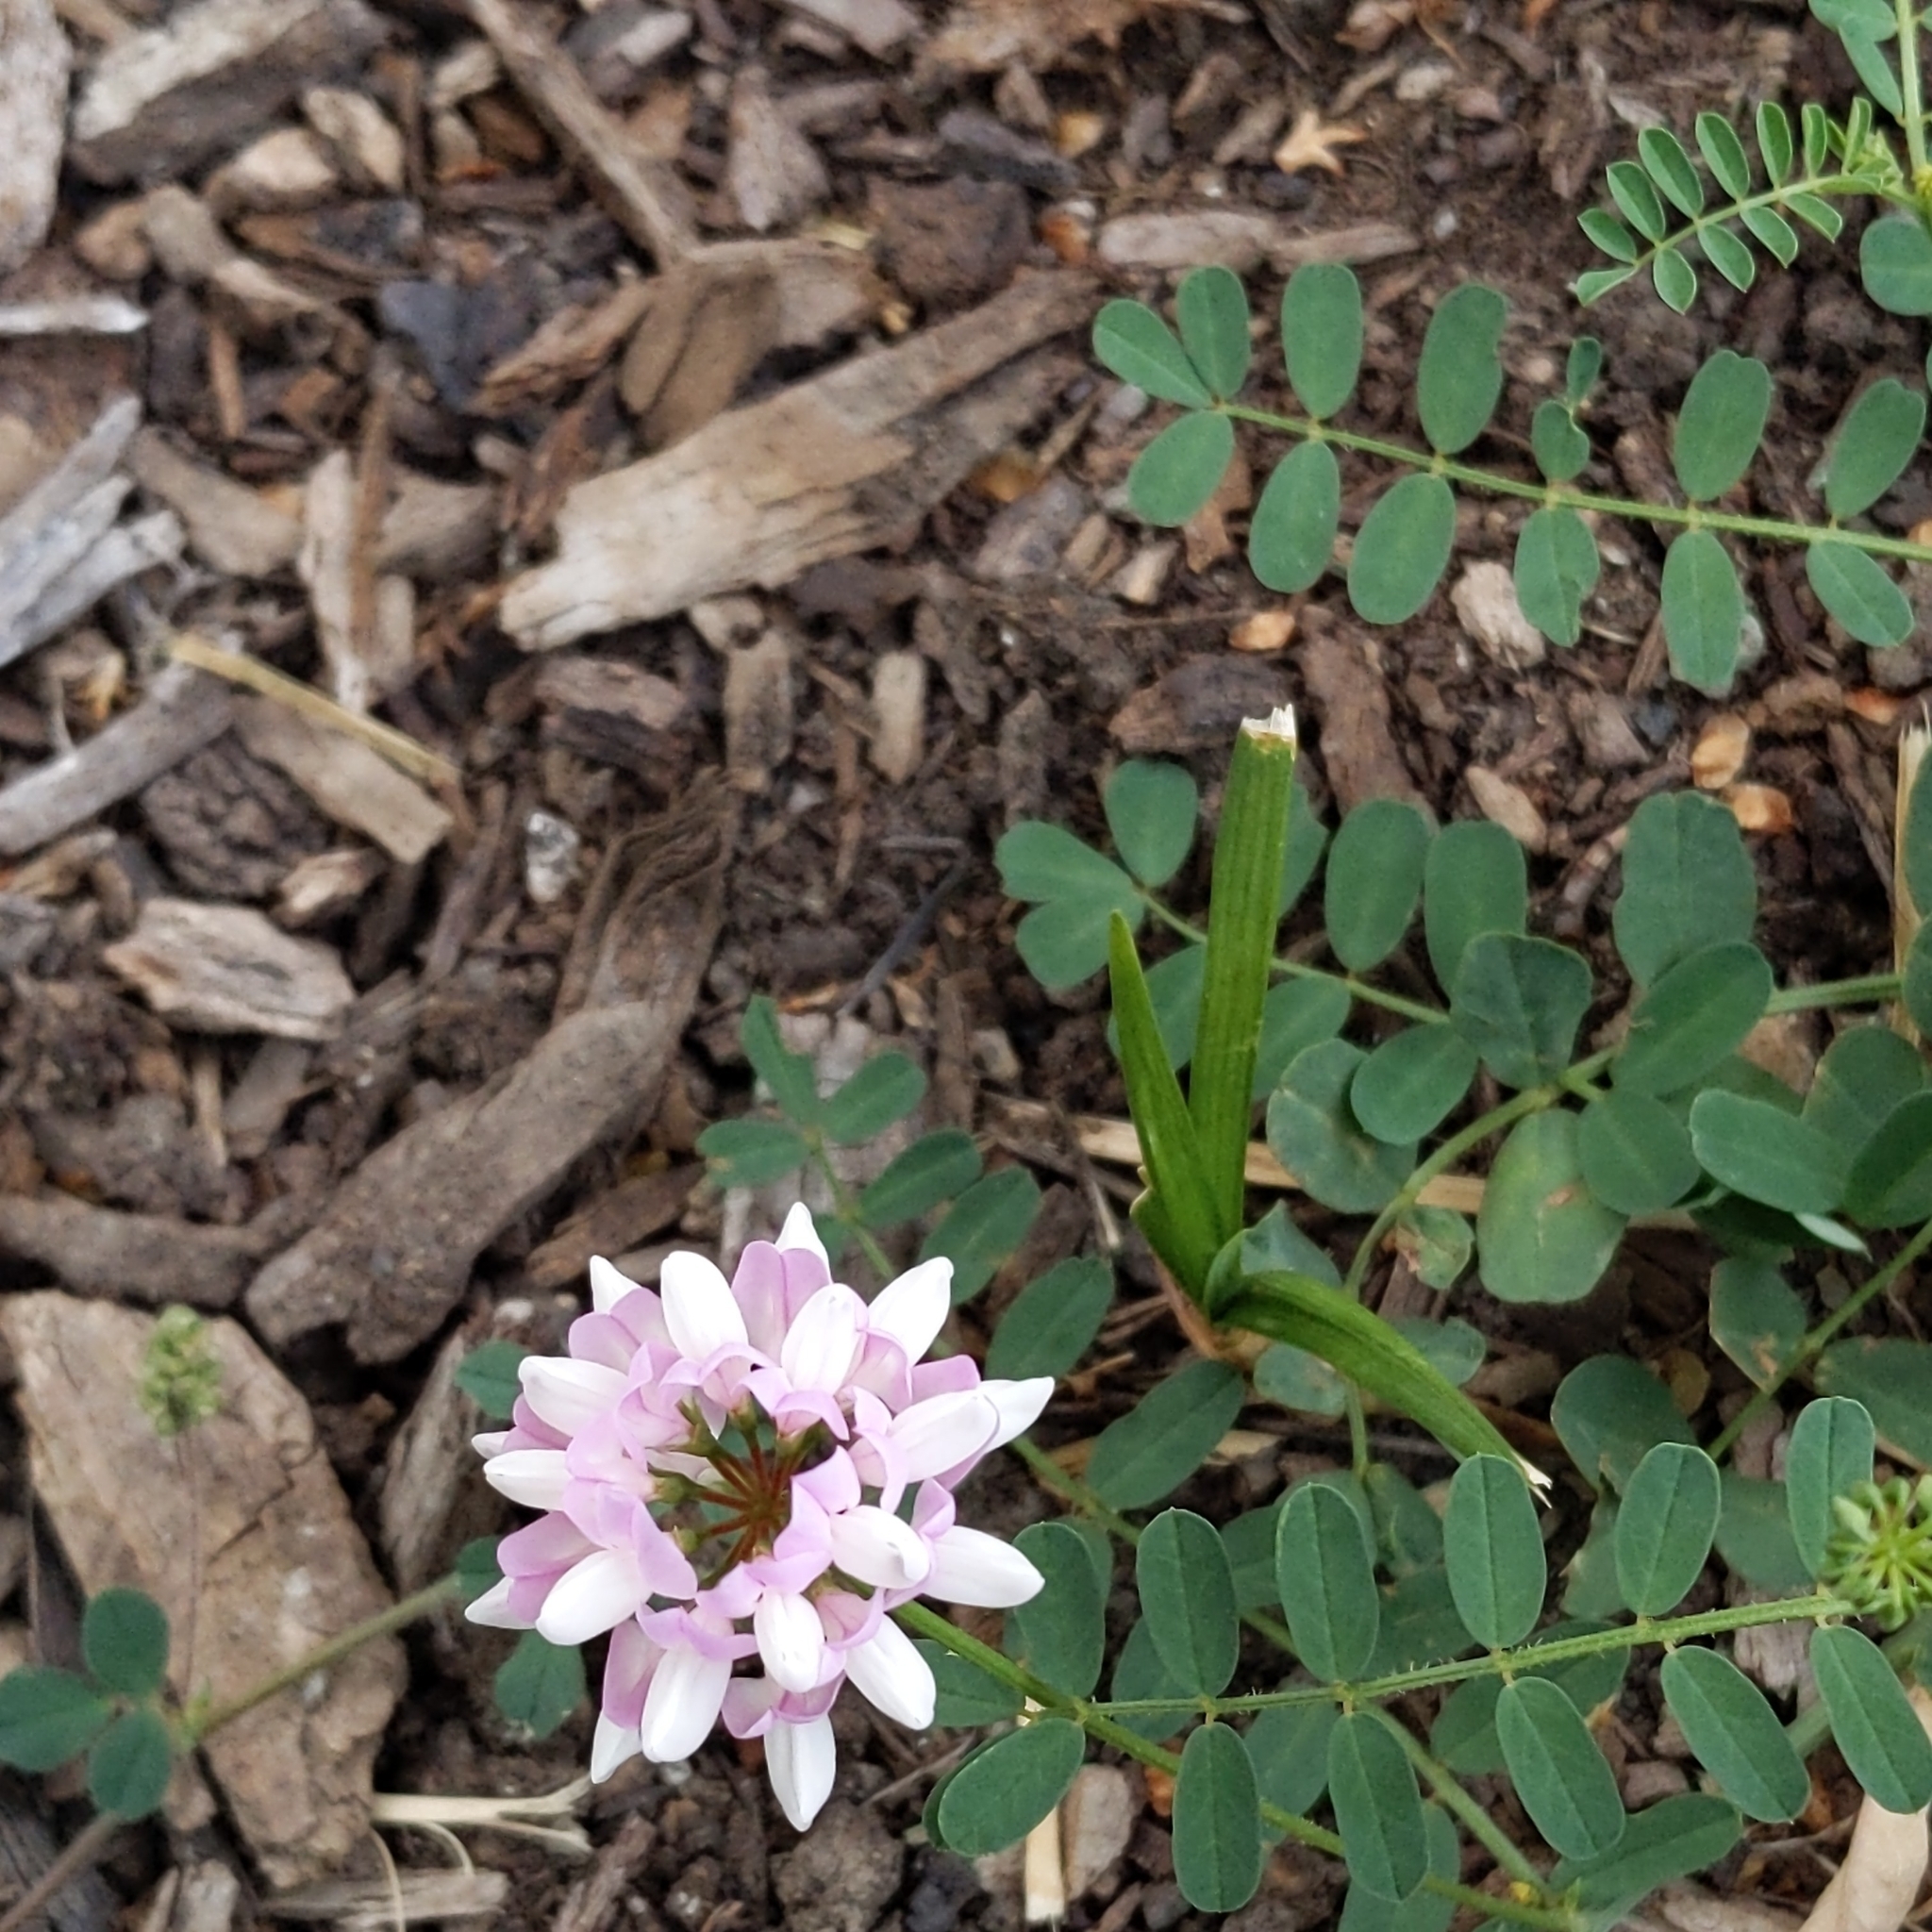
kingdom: Plantae
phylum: Tracheophyta
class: Magnoliopsida
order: Fabales
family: Fabaceae
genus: Coronilla
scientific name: Coronilla varia
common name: Crownvetch
